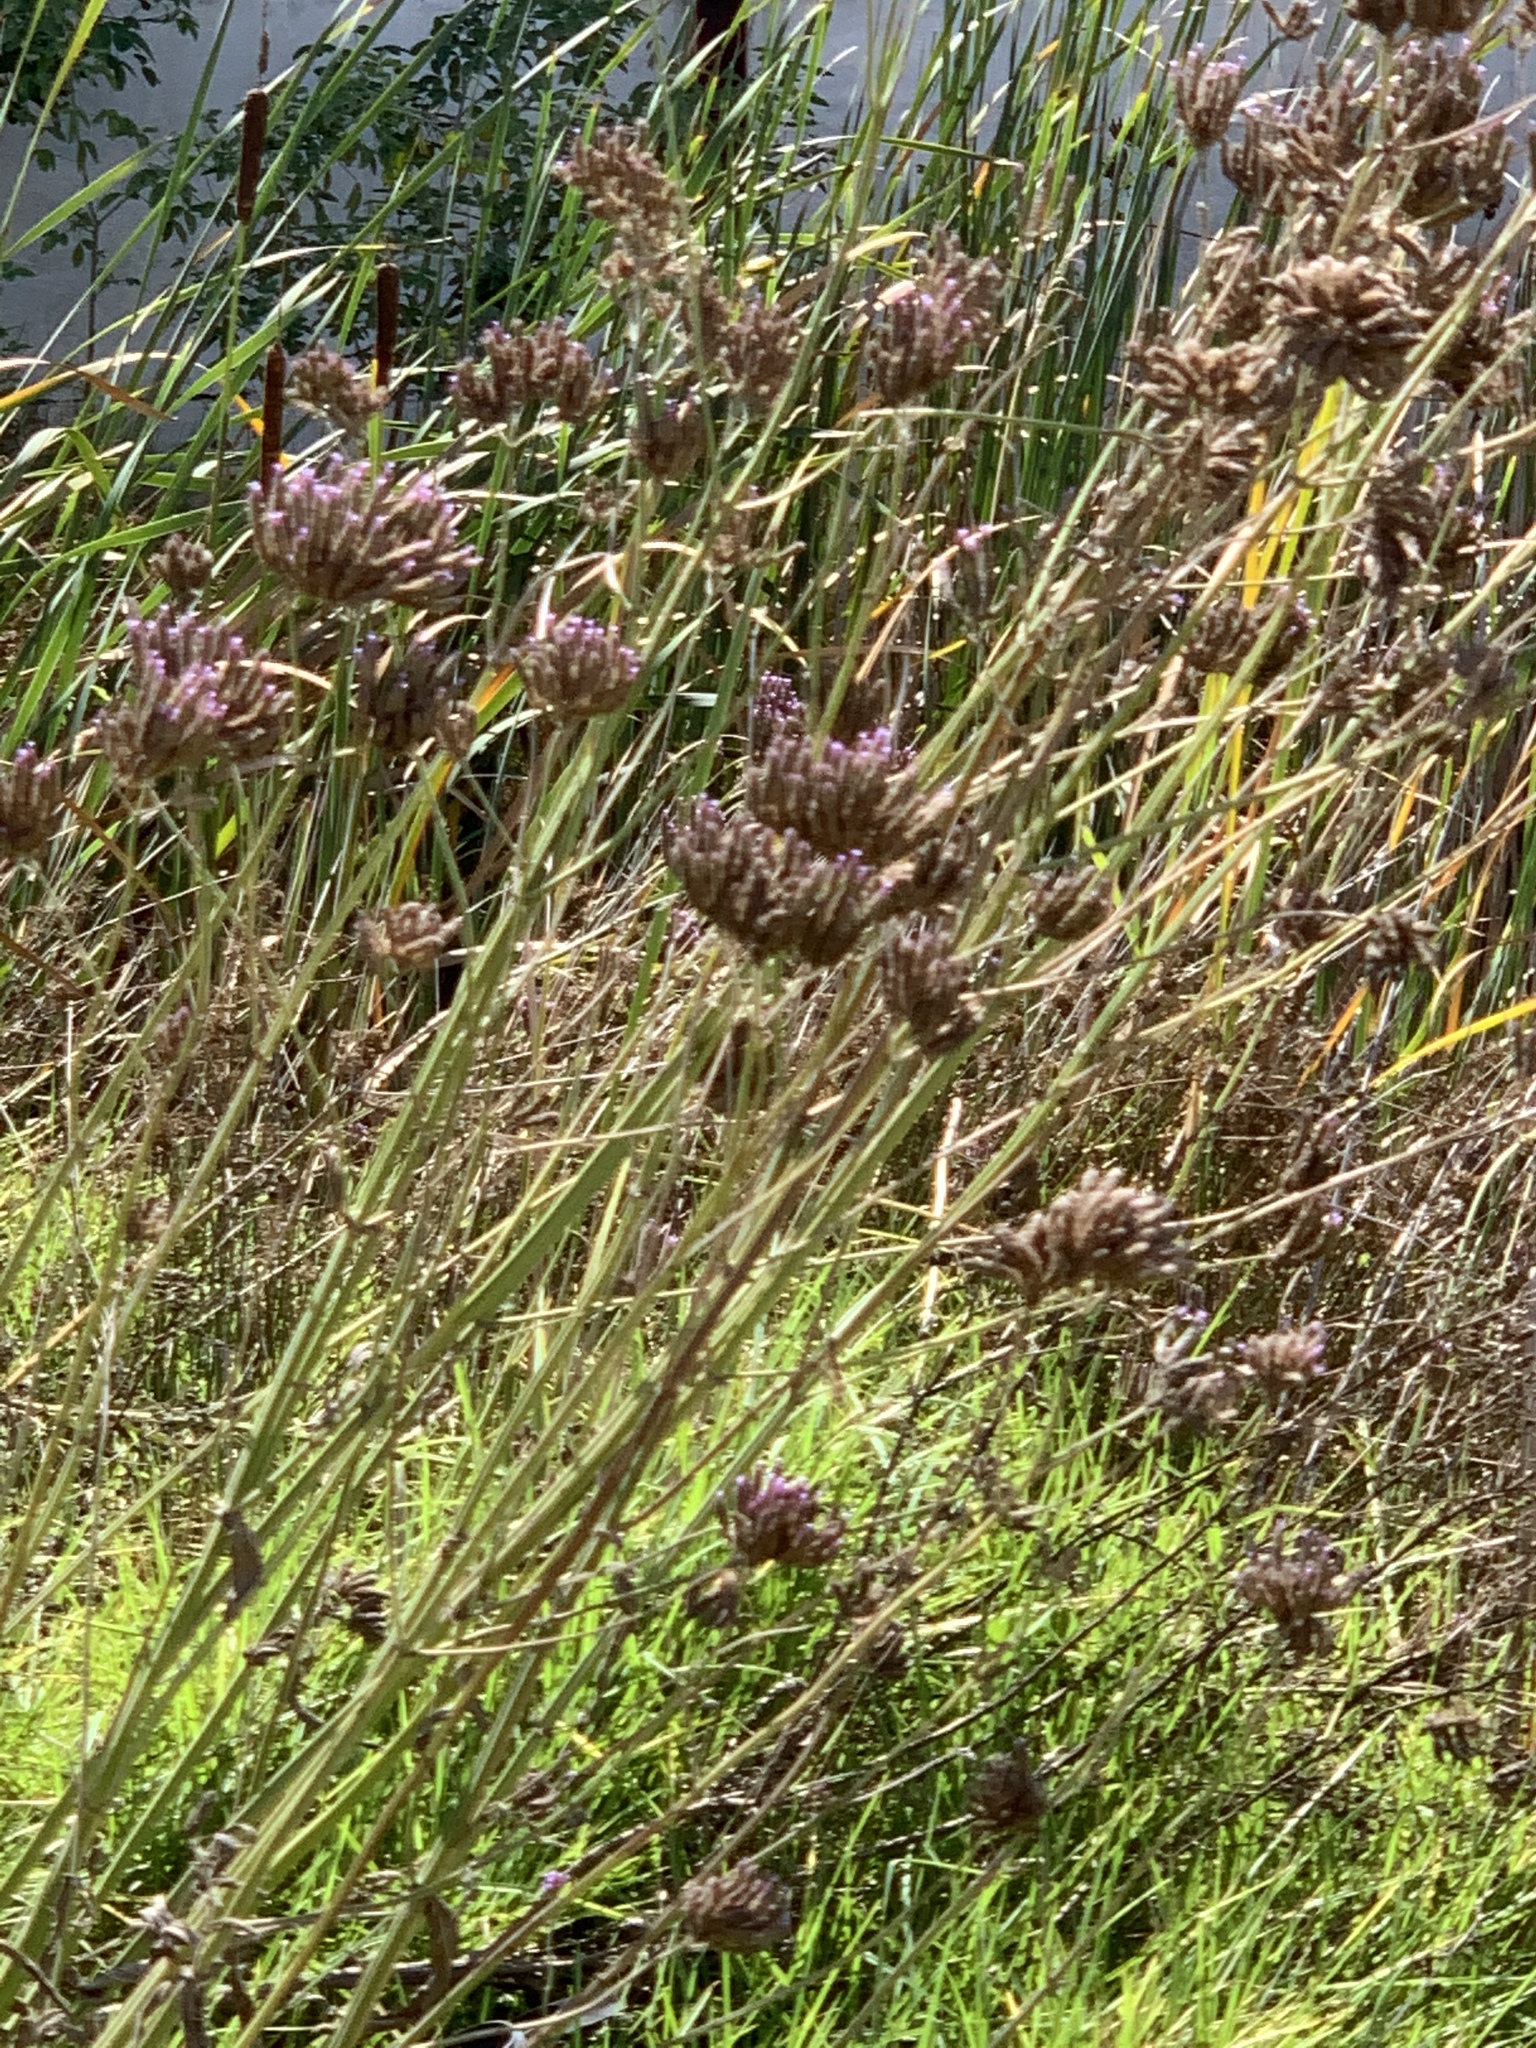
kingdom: Plantae
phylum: Tracheophyta
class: Magnoliopsida
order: Lamiales
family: Verbenaceae
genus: Verbena
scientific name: Verbena bonariensis
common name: Purpletop vervain
